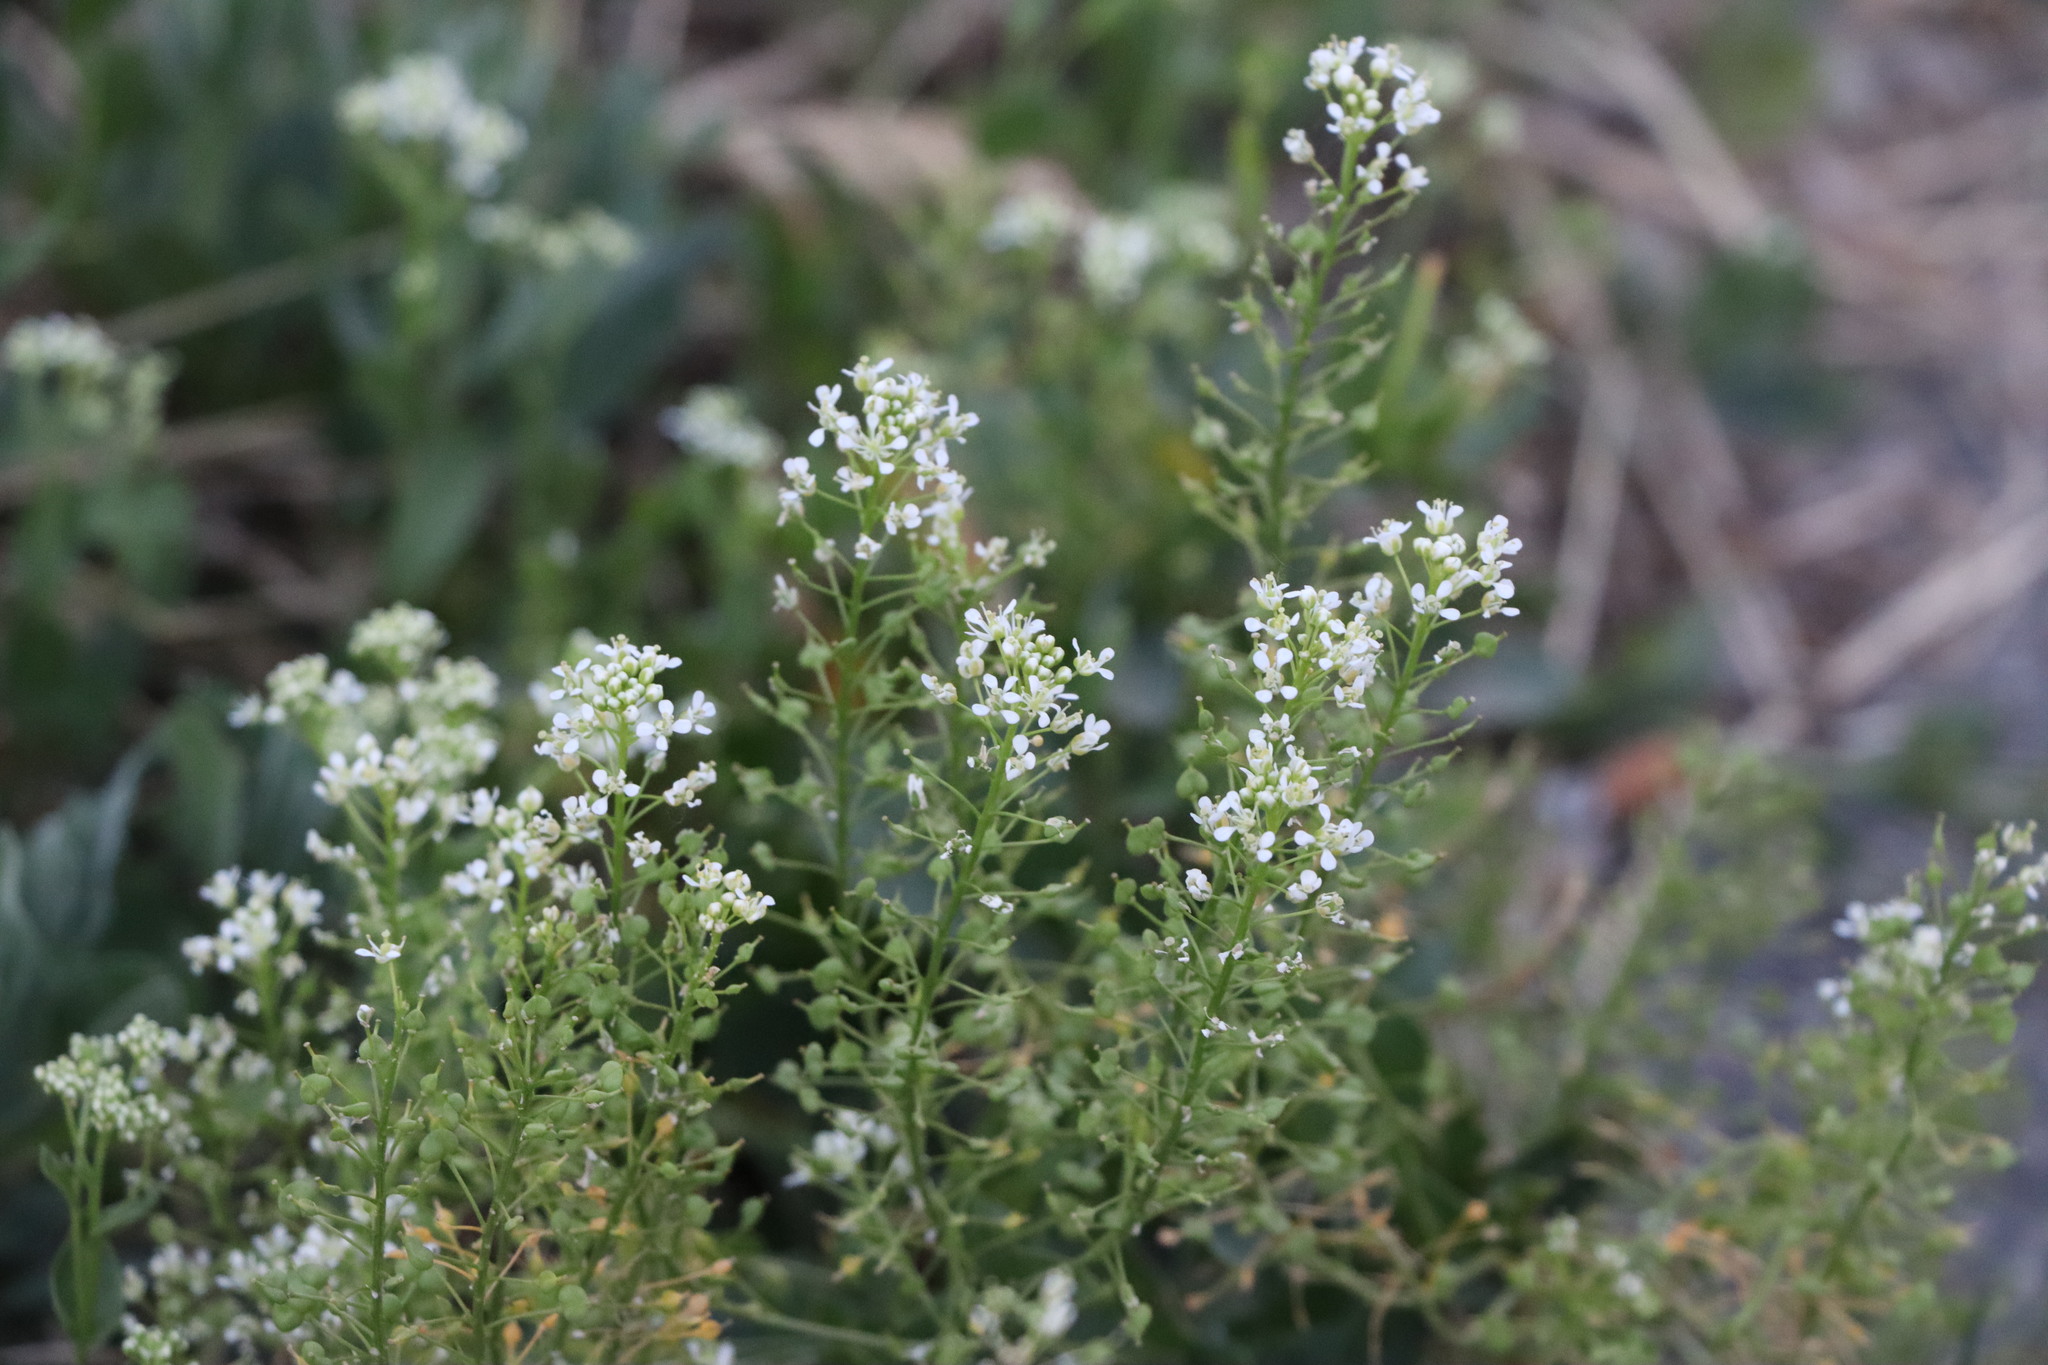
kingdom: Plantae
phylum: Tracheophyta
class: Magnoliopsida
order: Brassicales
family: Brassicaceae
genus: Lepidium
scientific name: Lepidium draba
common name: Hoary cress
